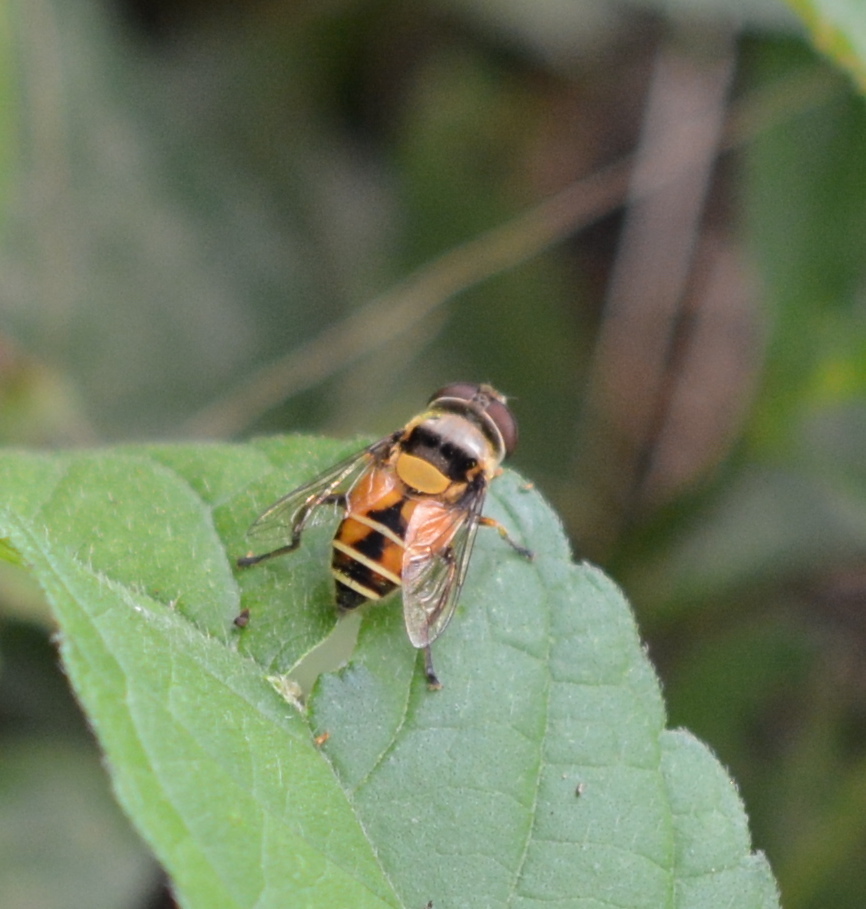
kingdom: Animalia
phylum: Arthropoda
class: Insecta
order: Diptera
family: Syrphidae
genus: Palpada
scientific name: Palpada pusilla
